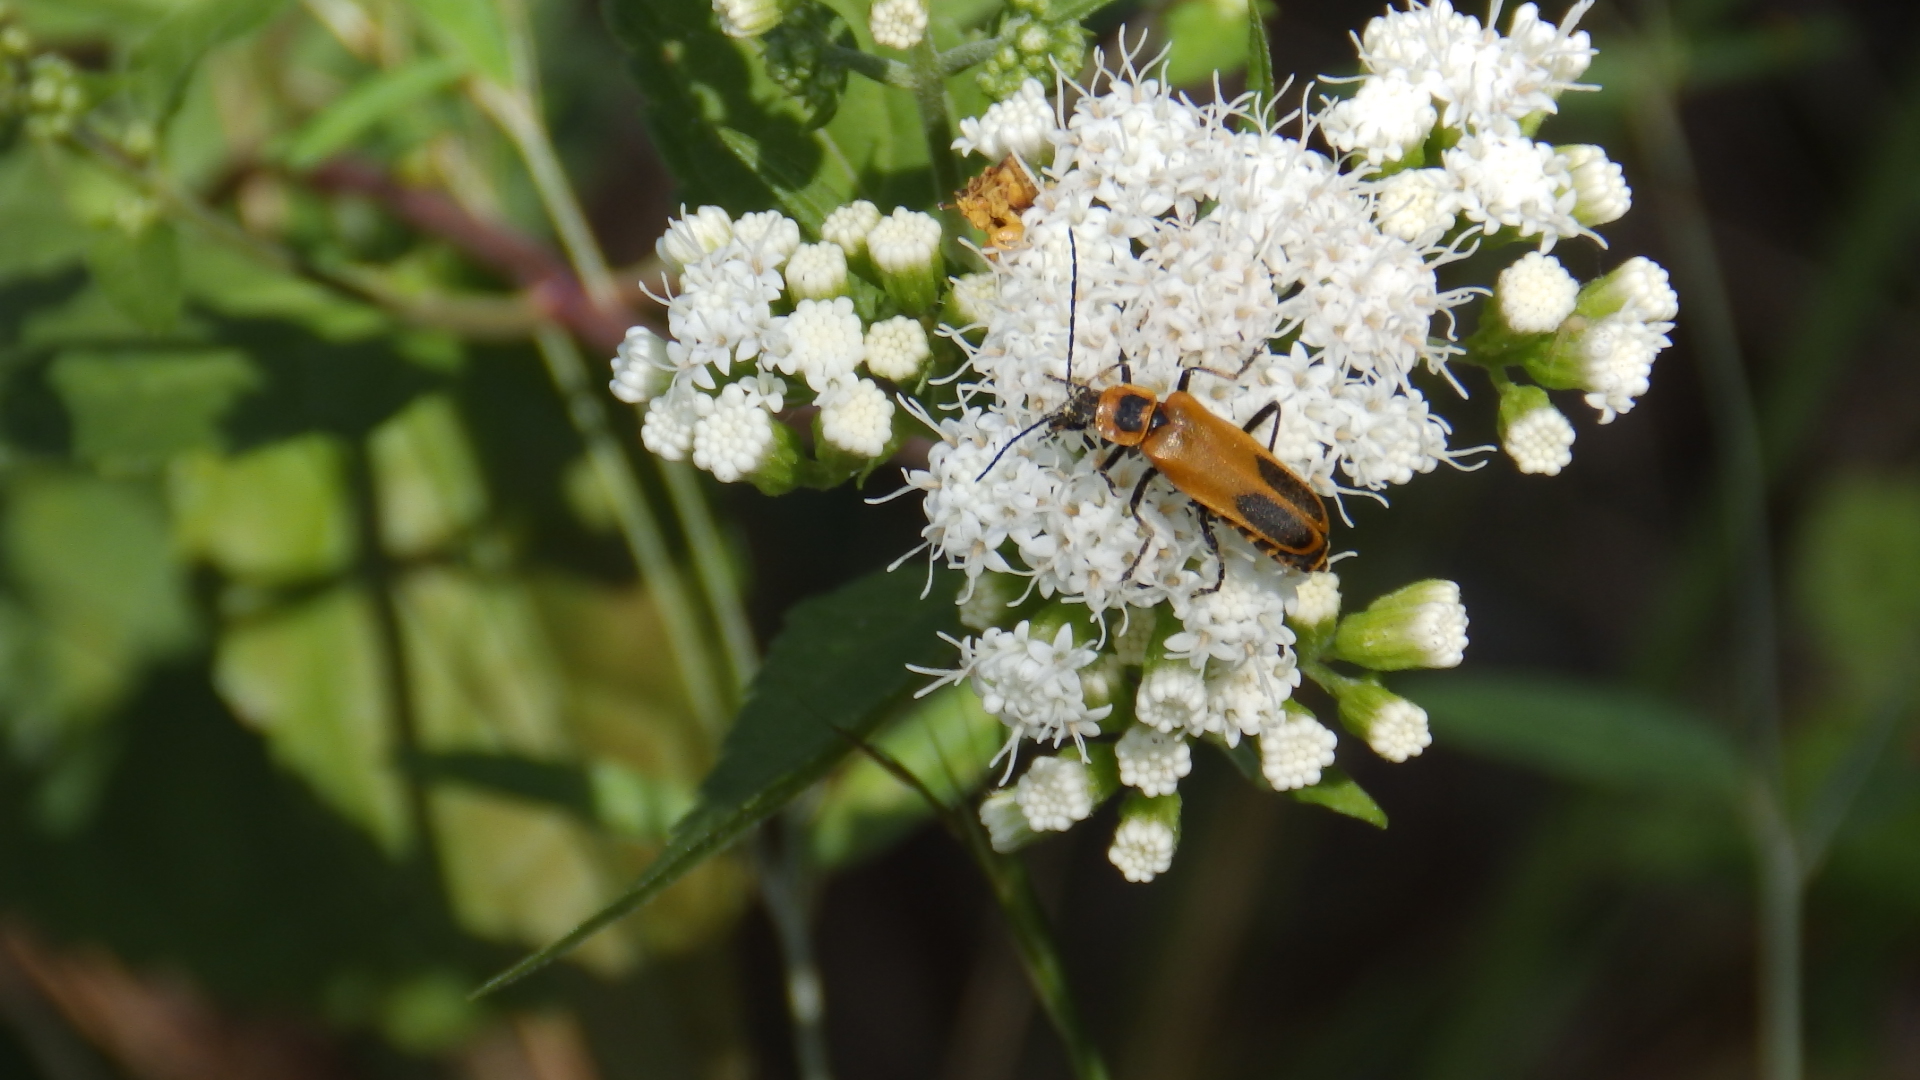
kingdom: Animalia
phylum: Arthropoda
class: Insecta
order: Coleoptera
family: Cantharidae
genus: Chauliognathus
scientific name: Chauliognathus pensylvanicus
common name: Goldenrod soldier beetle
